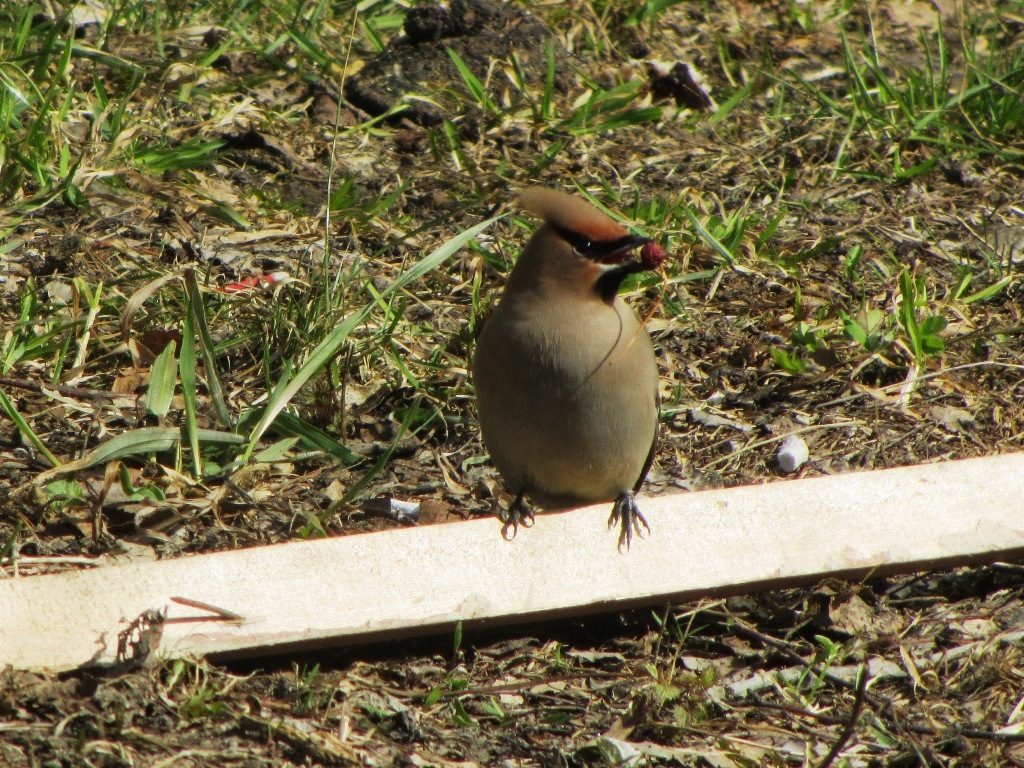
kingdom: Animalia
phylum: Chordata
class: Aves
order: Passeriformes
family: Bombycillidae
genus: Bombycilla
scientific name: Bombycilla garrulus
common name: Bohemian waxwing
